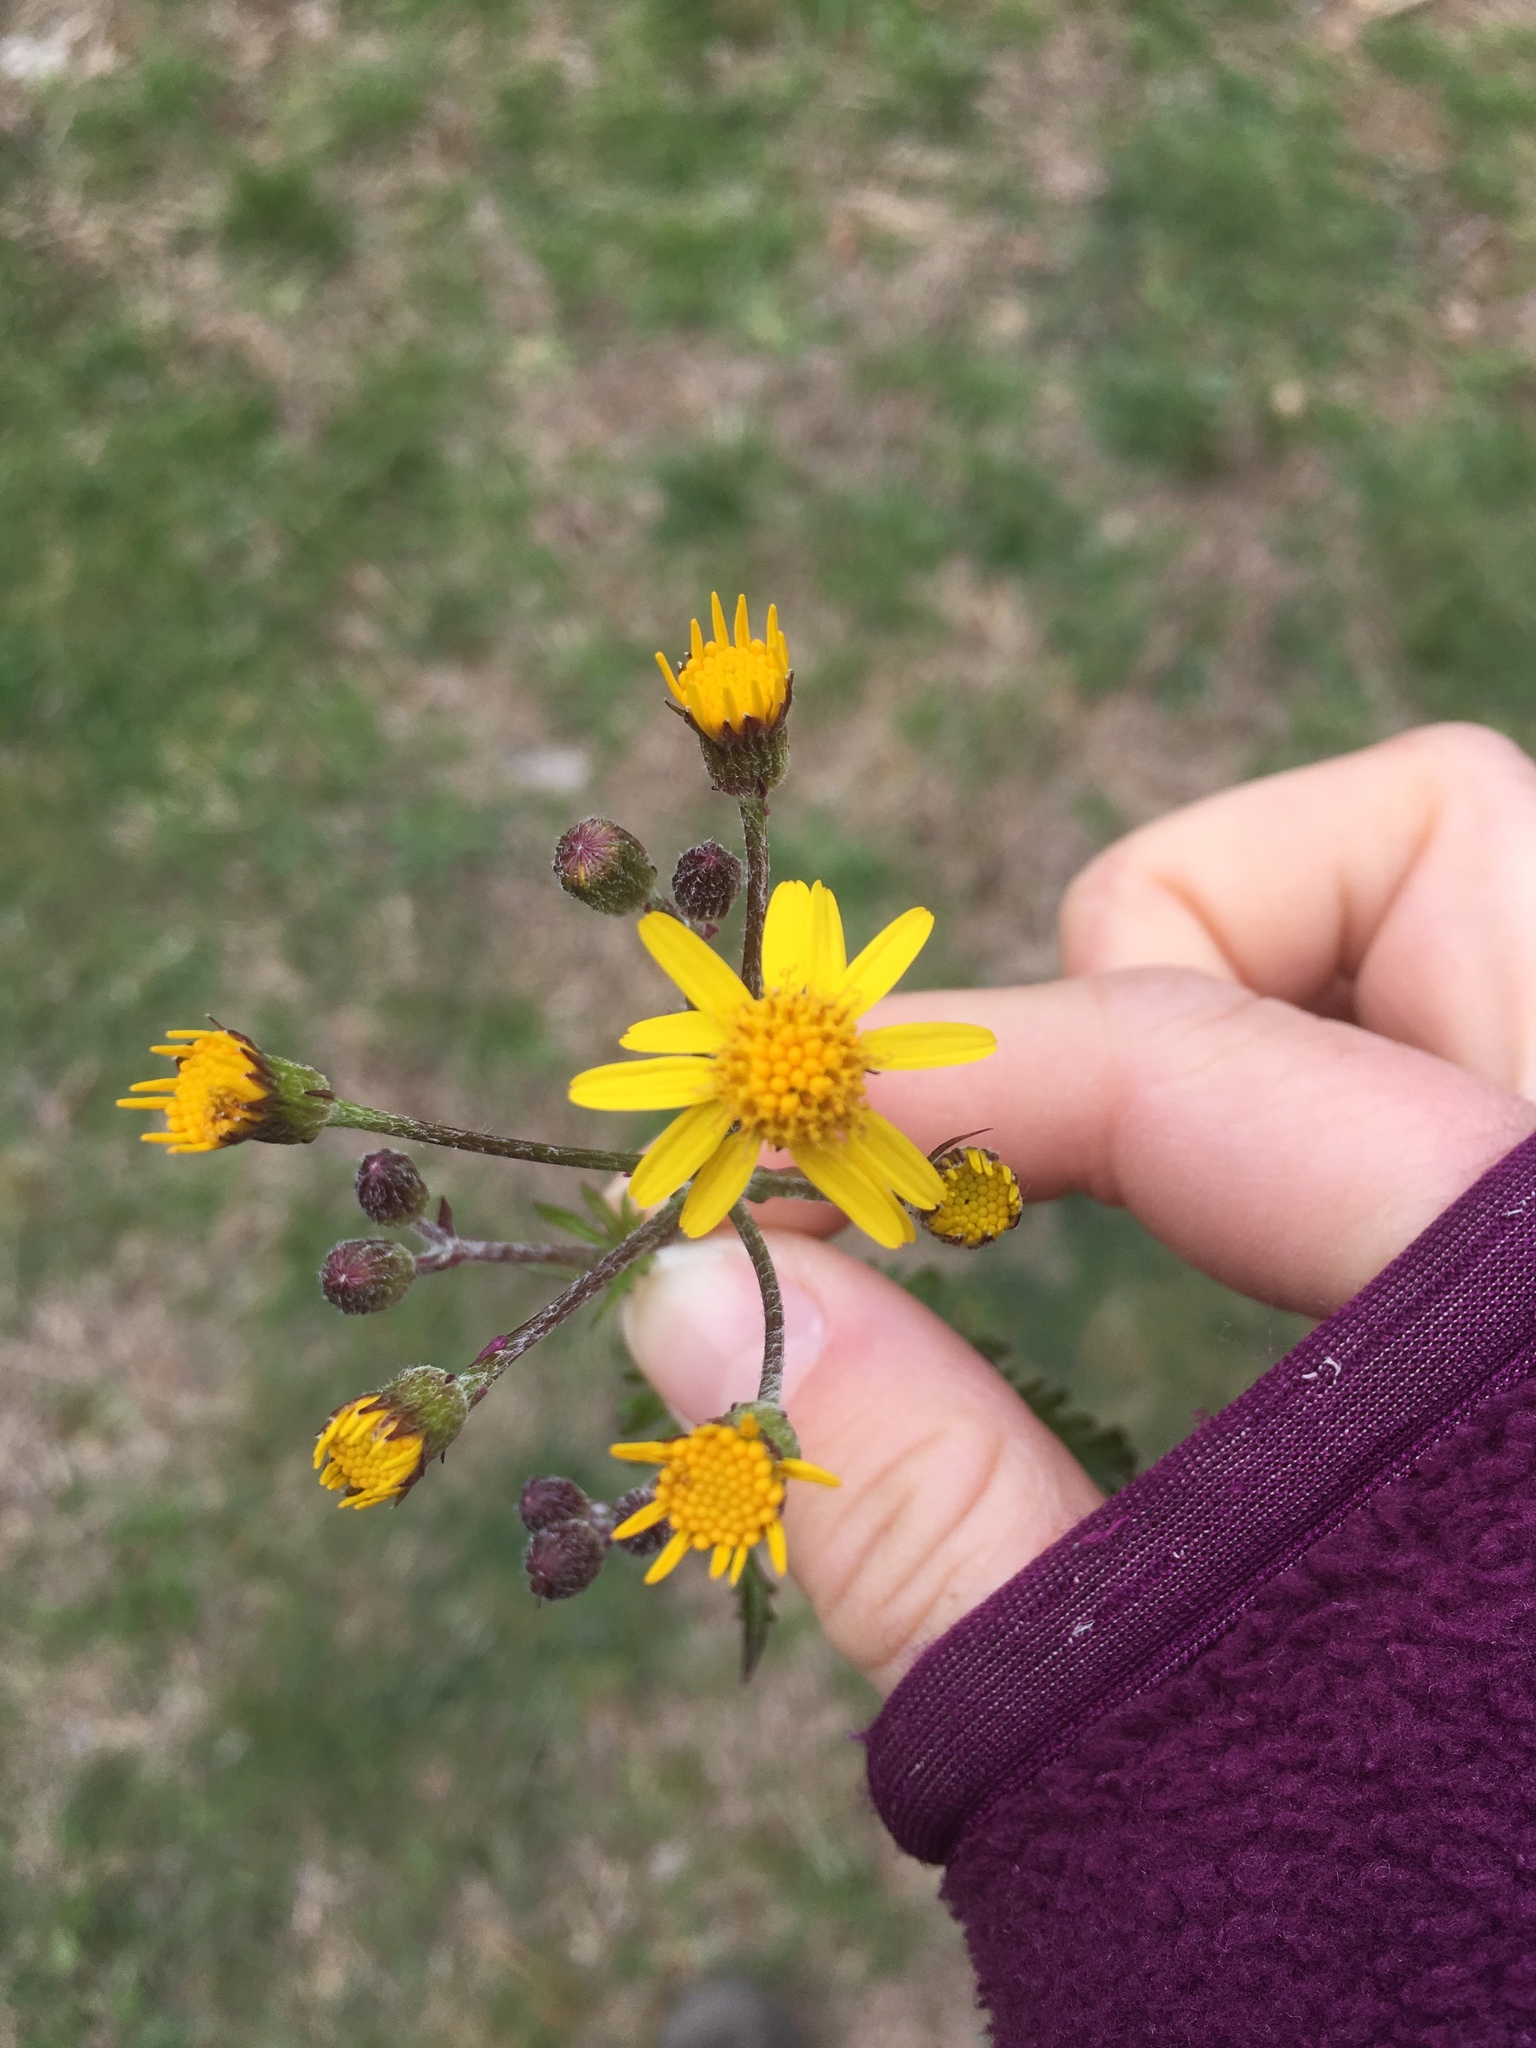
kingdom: Plantae
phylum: Tracheophyta
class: Magnoliopsida
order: Asterales
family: Asteraceae
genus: Packera
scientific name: Packera aurea
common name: Golden groundsel
